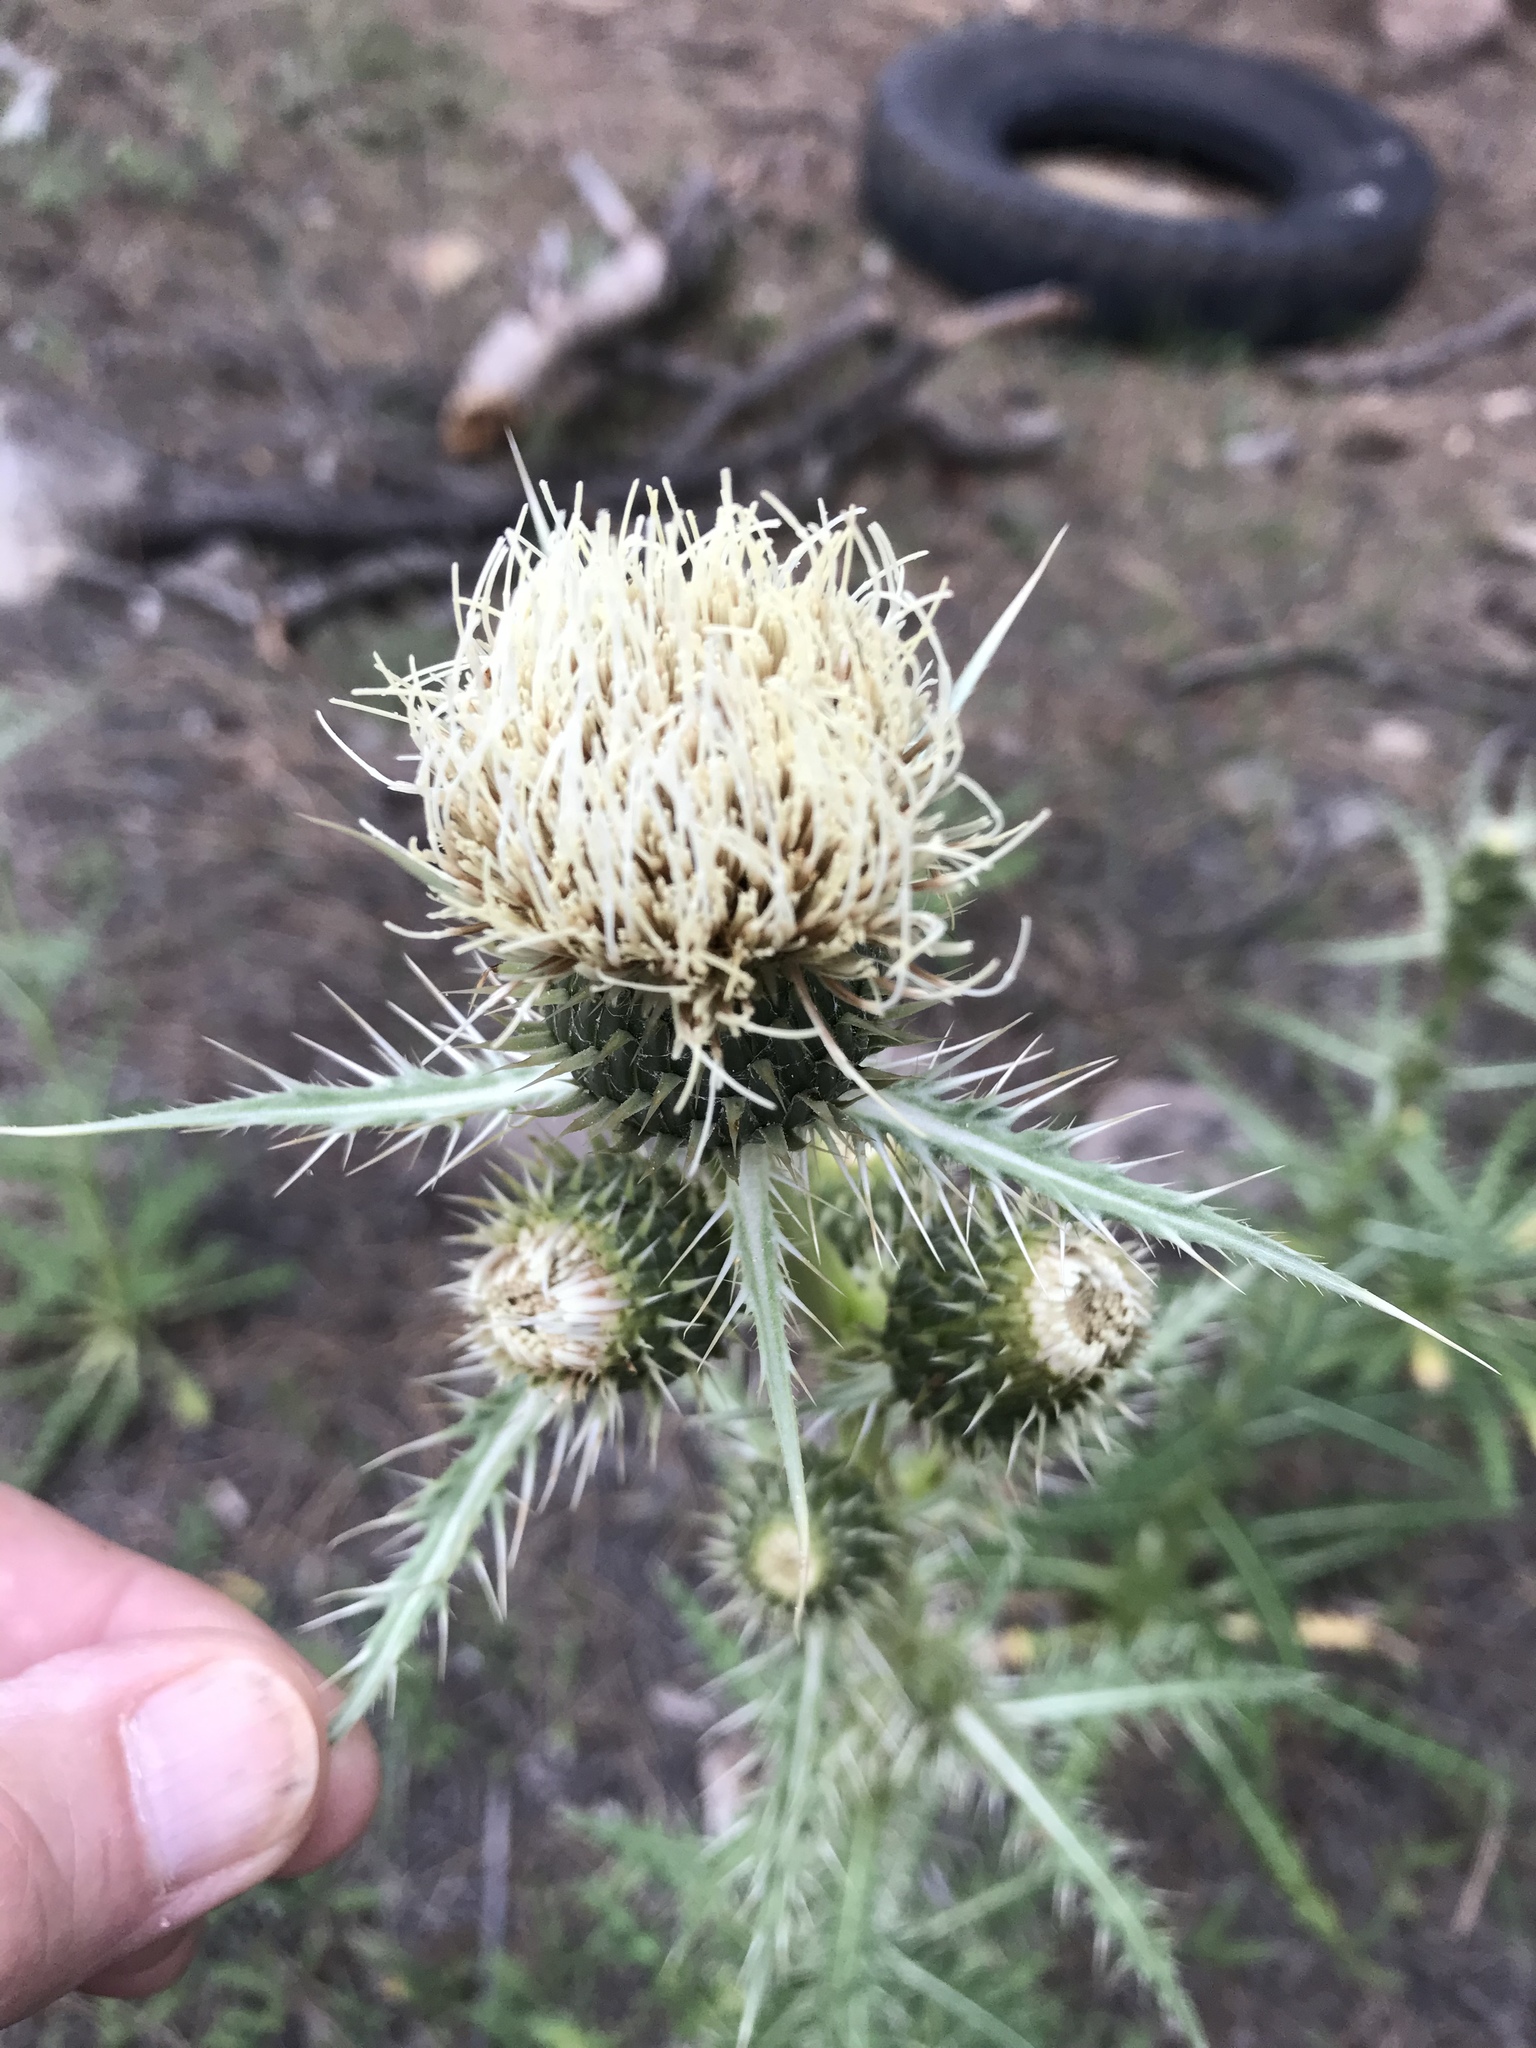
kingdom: Plantae
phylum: Tracheophyta
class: Magnoliopsida
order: Asterales
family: Asteraceae
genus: Cirsium
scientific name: Cirsium coloradense
